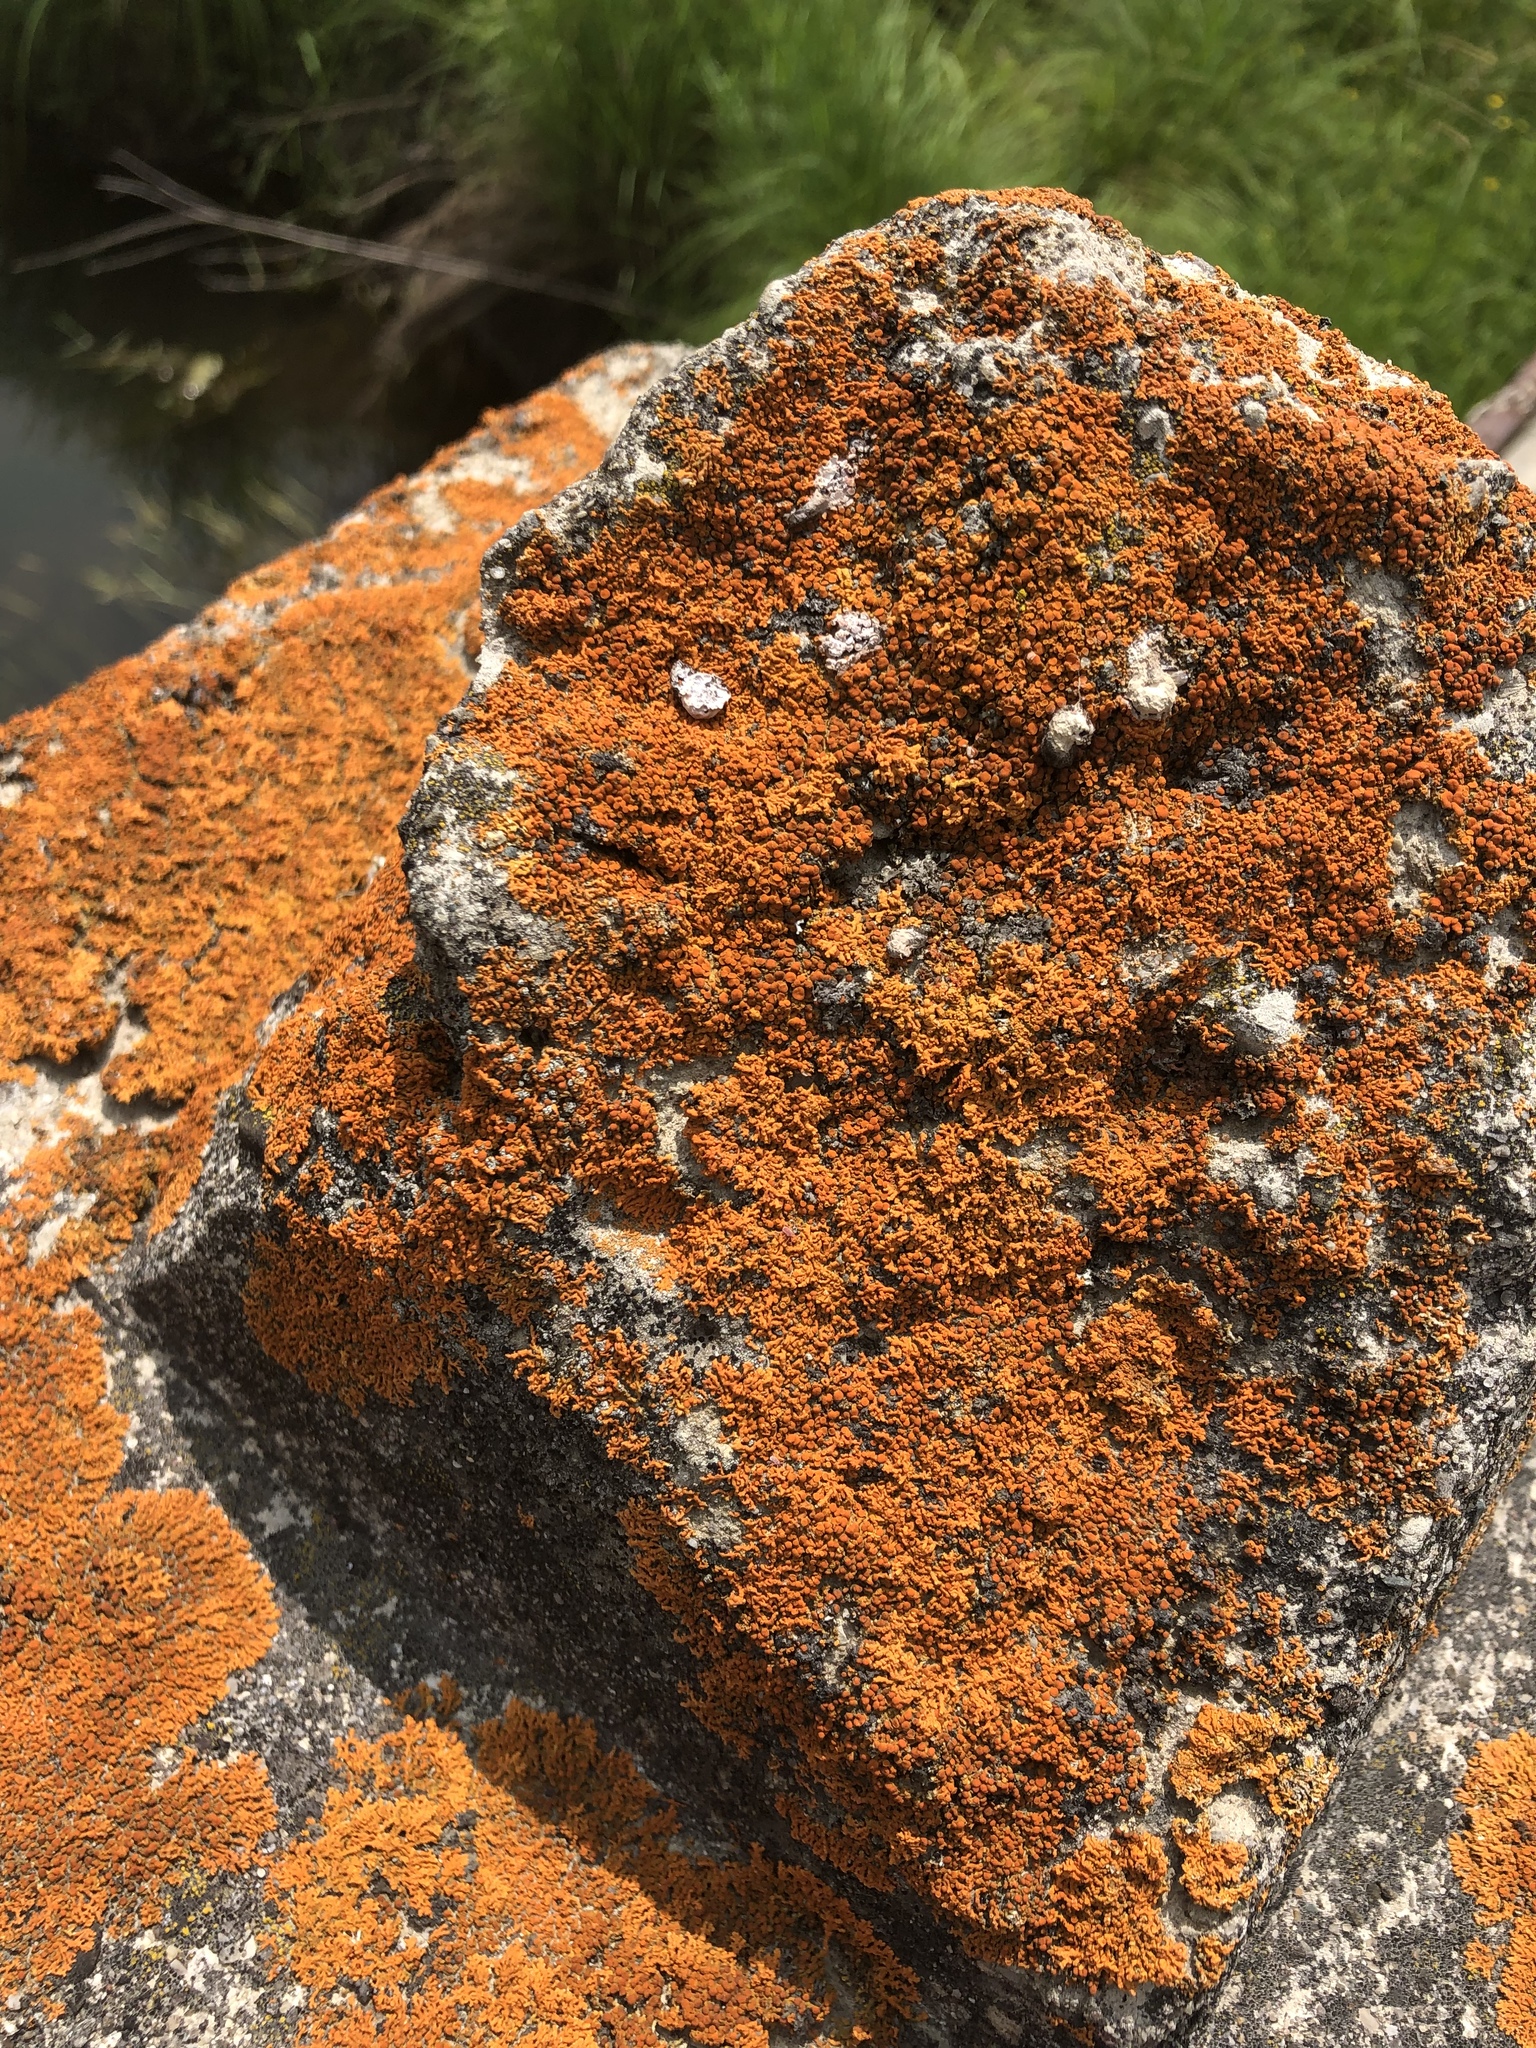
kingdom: Fungi
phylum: Ascomycota
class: Lecanoromycetes
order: Teloschistales
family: Teloschistaceae
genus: Xanthoria
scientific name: Xanthoria elegans
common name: Elegant sunburst lichen
